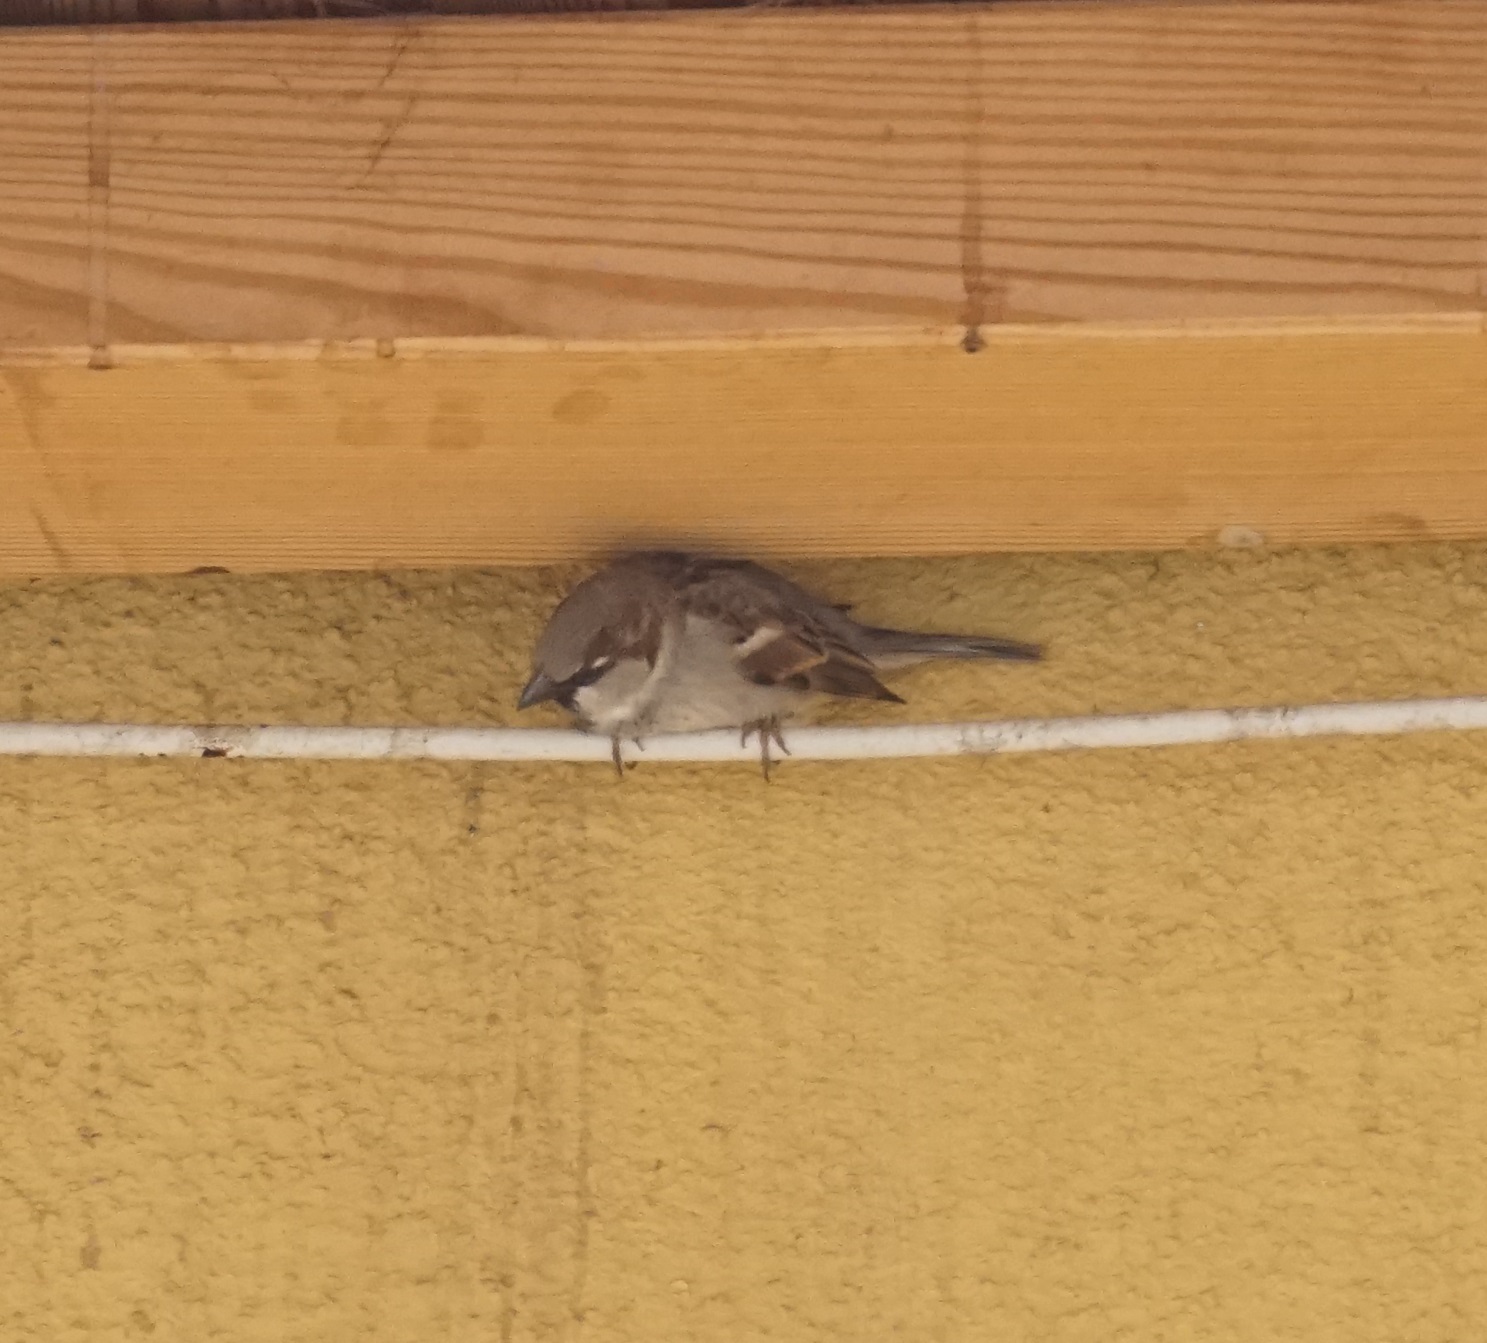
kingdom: Animalia
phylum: Chordata
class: Aves
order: Passeriformes
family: Passeridae
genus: Passer
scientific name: Passer domesticus
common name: House sparrow
